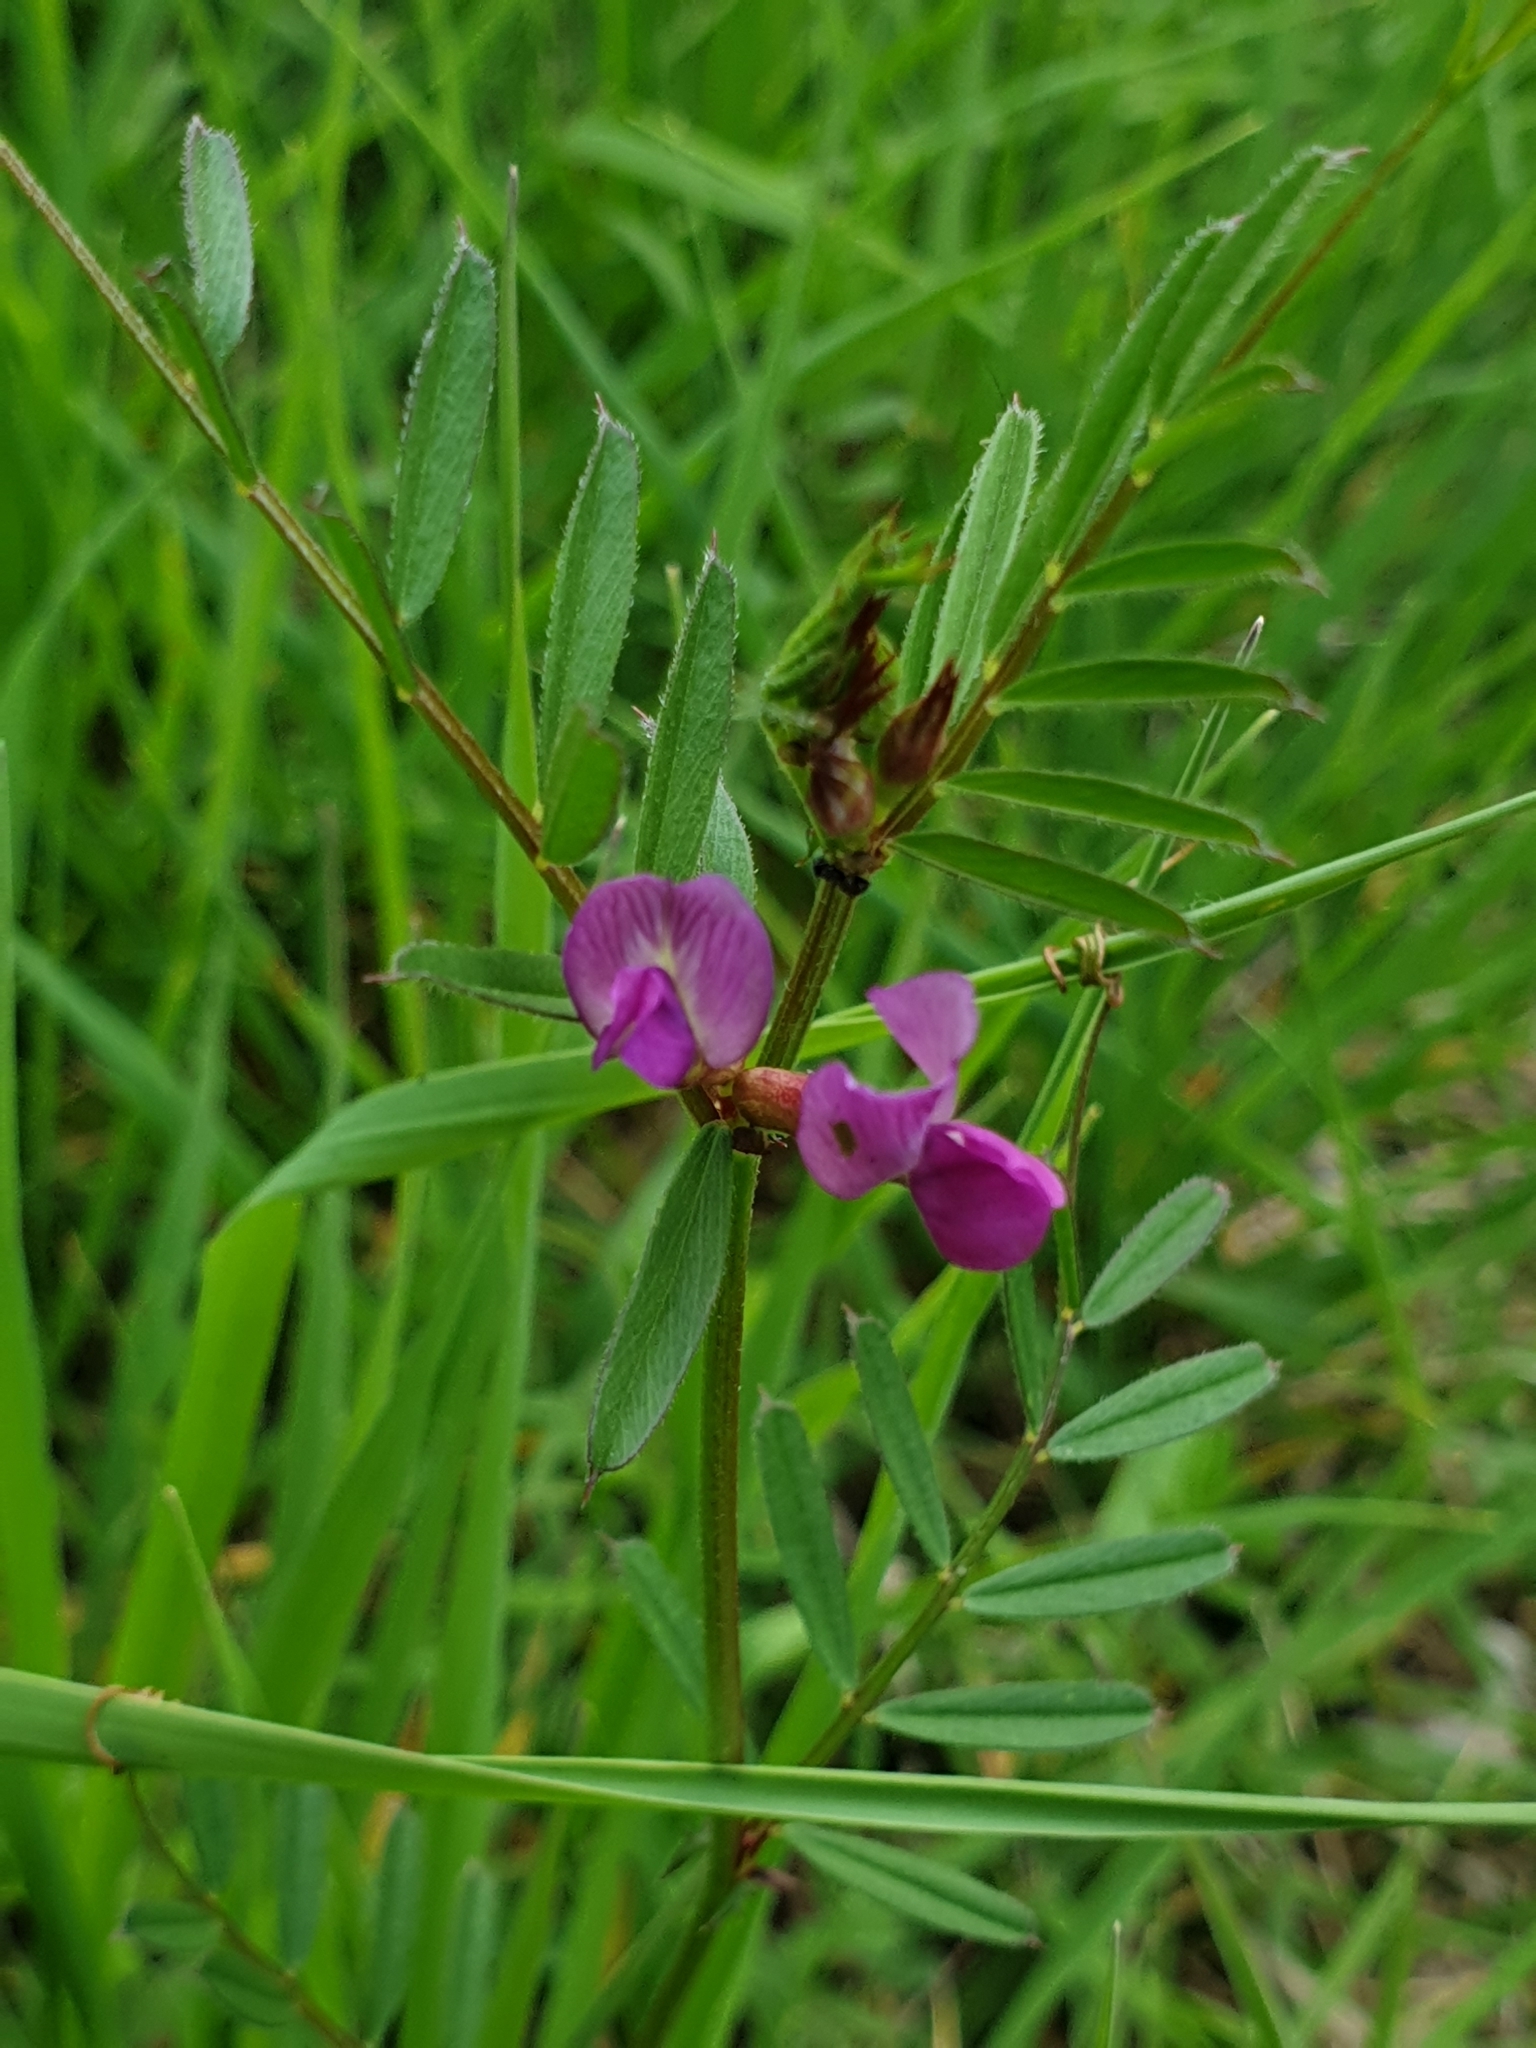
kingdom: Plantae
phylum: Tracheophyta
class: Magnoliopsida
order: Fabales
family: Fabaceae
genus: Vicia
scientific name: Vicia sativa
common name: Garden vetch
